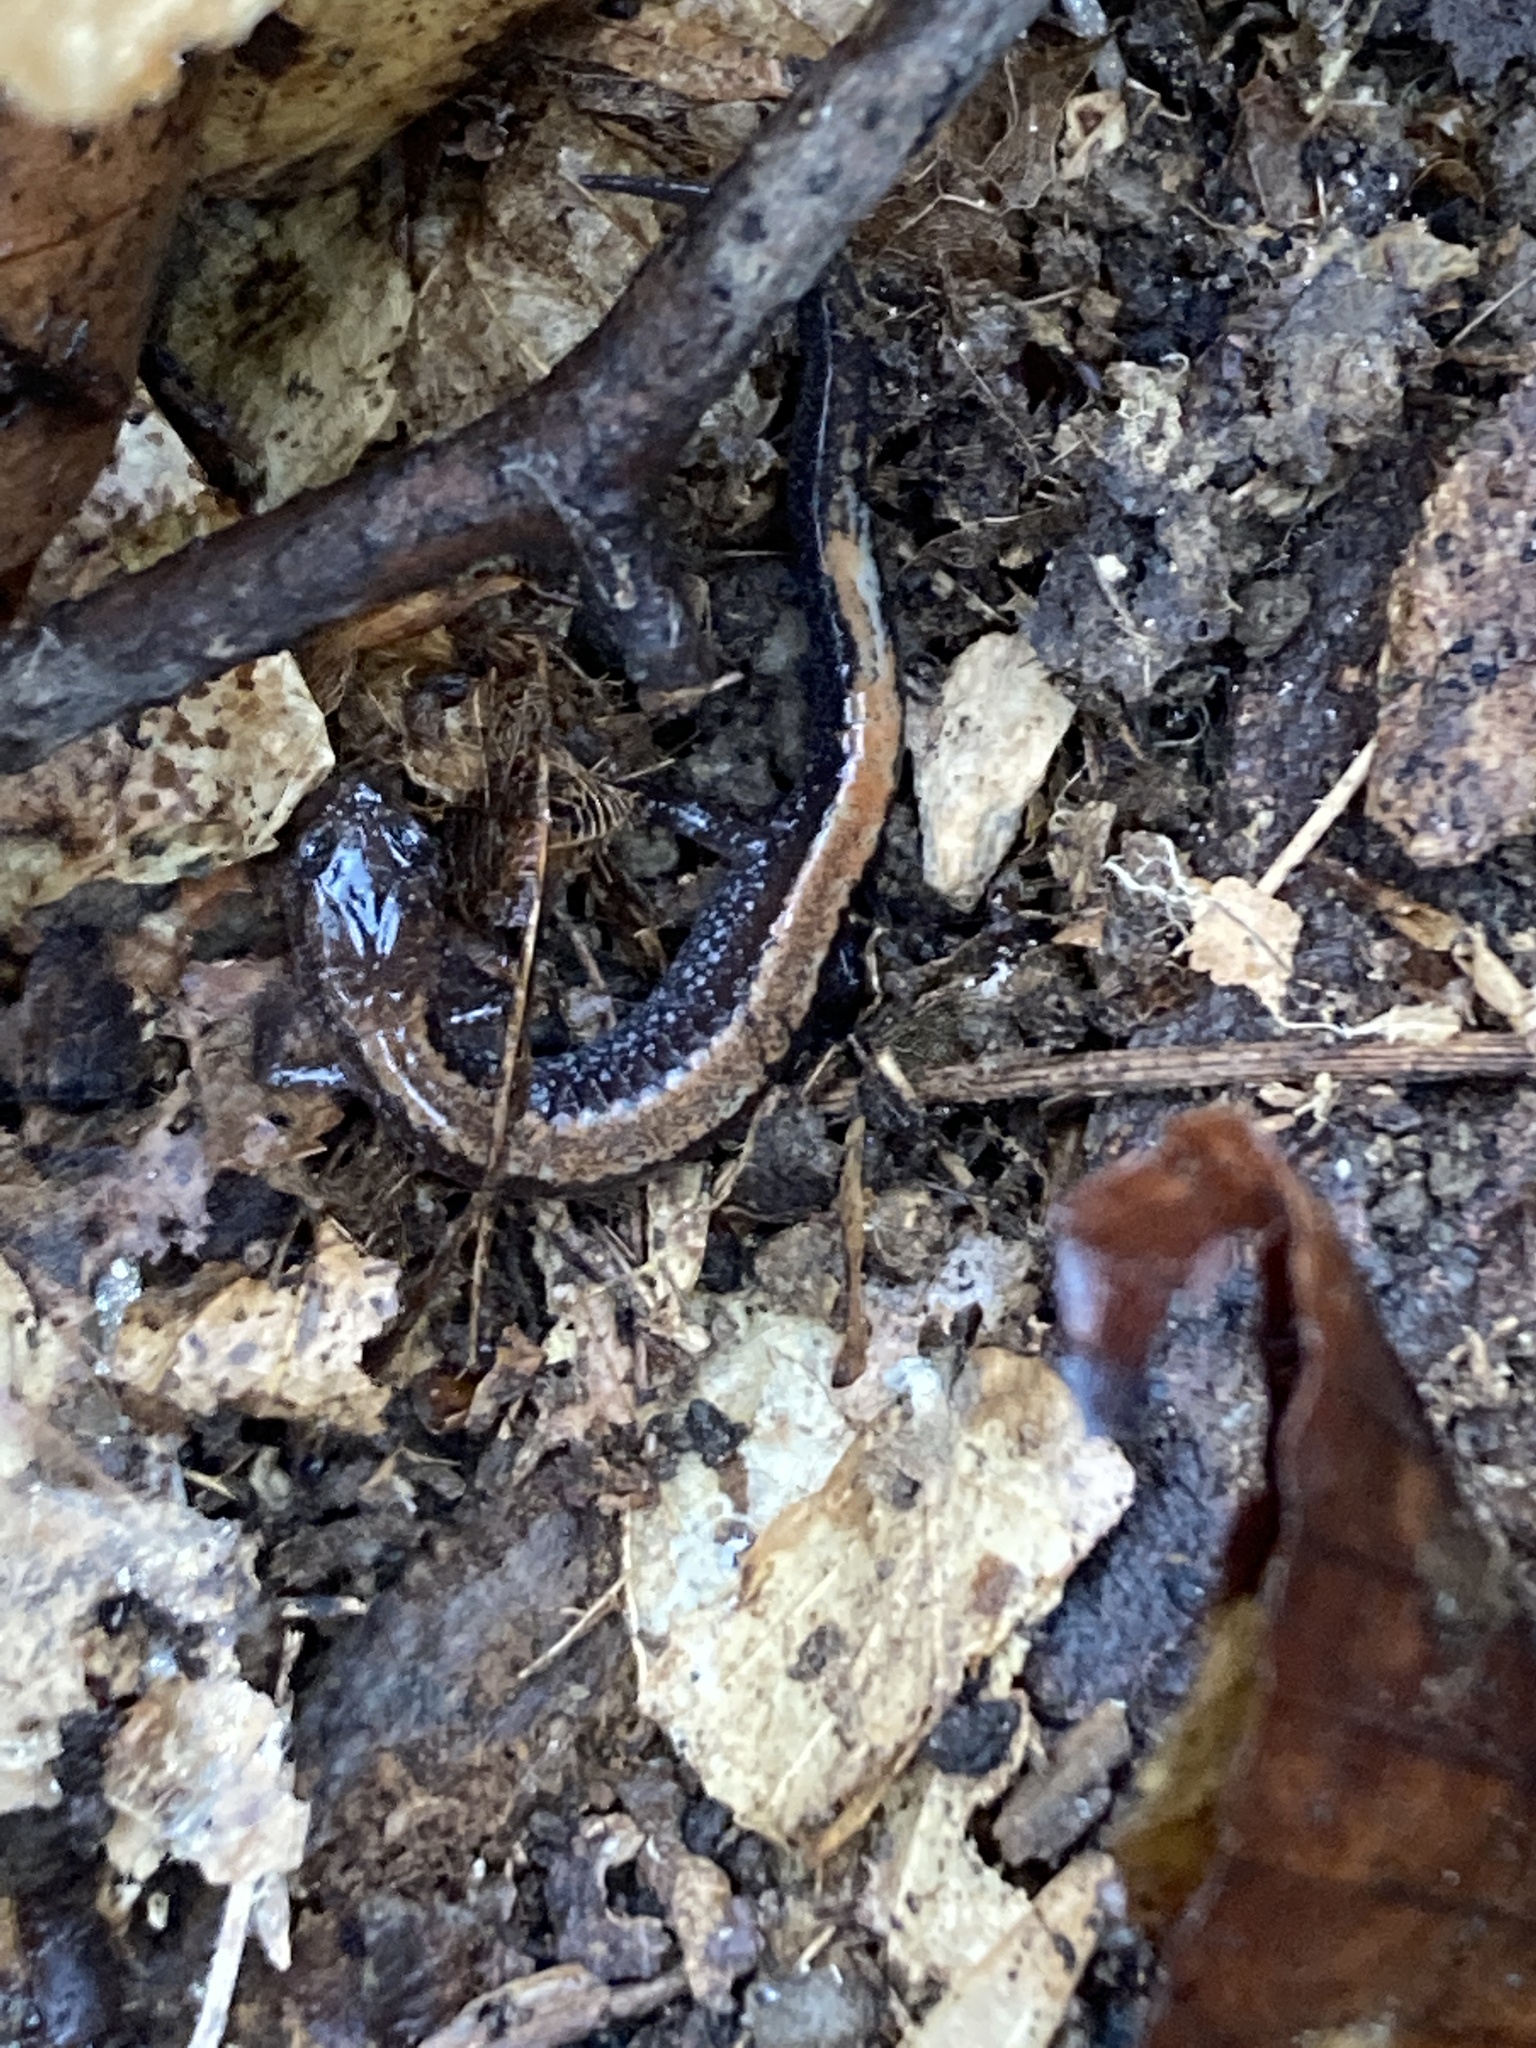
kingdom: Animalia
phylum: Chordata
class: Amphibia
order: Caudata
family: Plethodontidae
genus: Plethodon
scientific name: Plethodon cinereus
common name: Redback salamander
